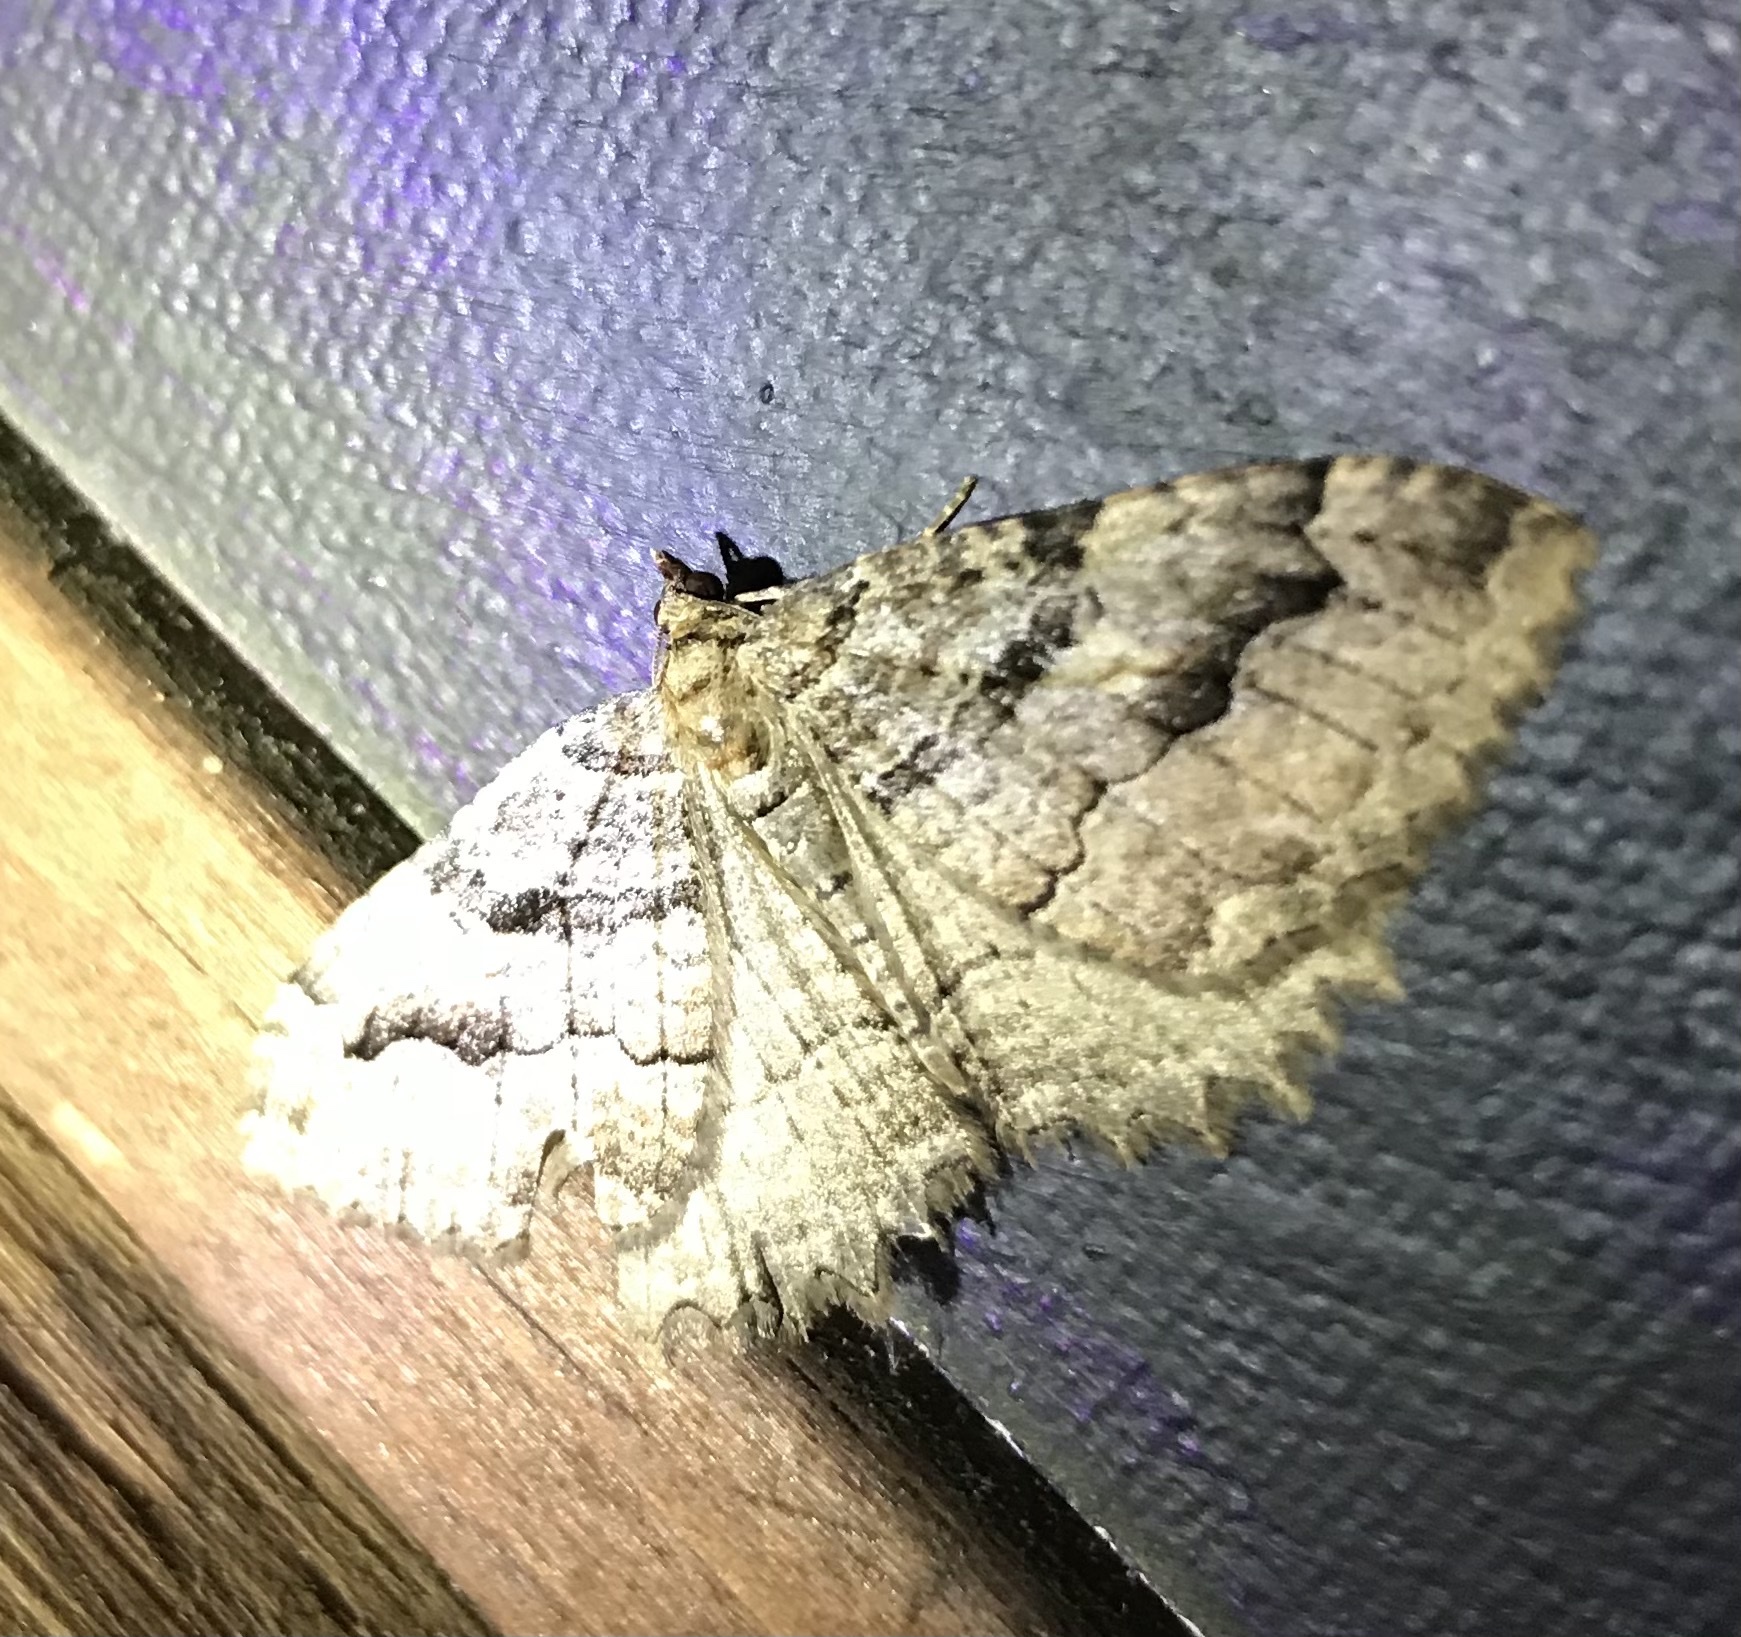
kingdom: Animalia
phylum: Arthropoda
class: Insecta
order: Lepidoptera
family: Geometridae
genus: Triphosa
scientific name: Triphosa haesitata
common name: Tissue moth
